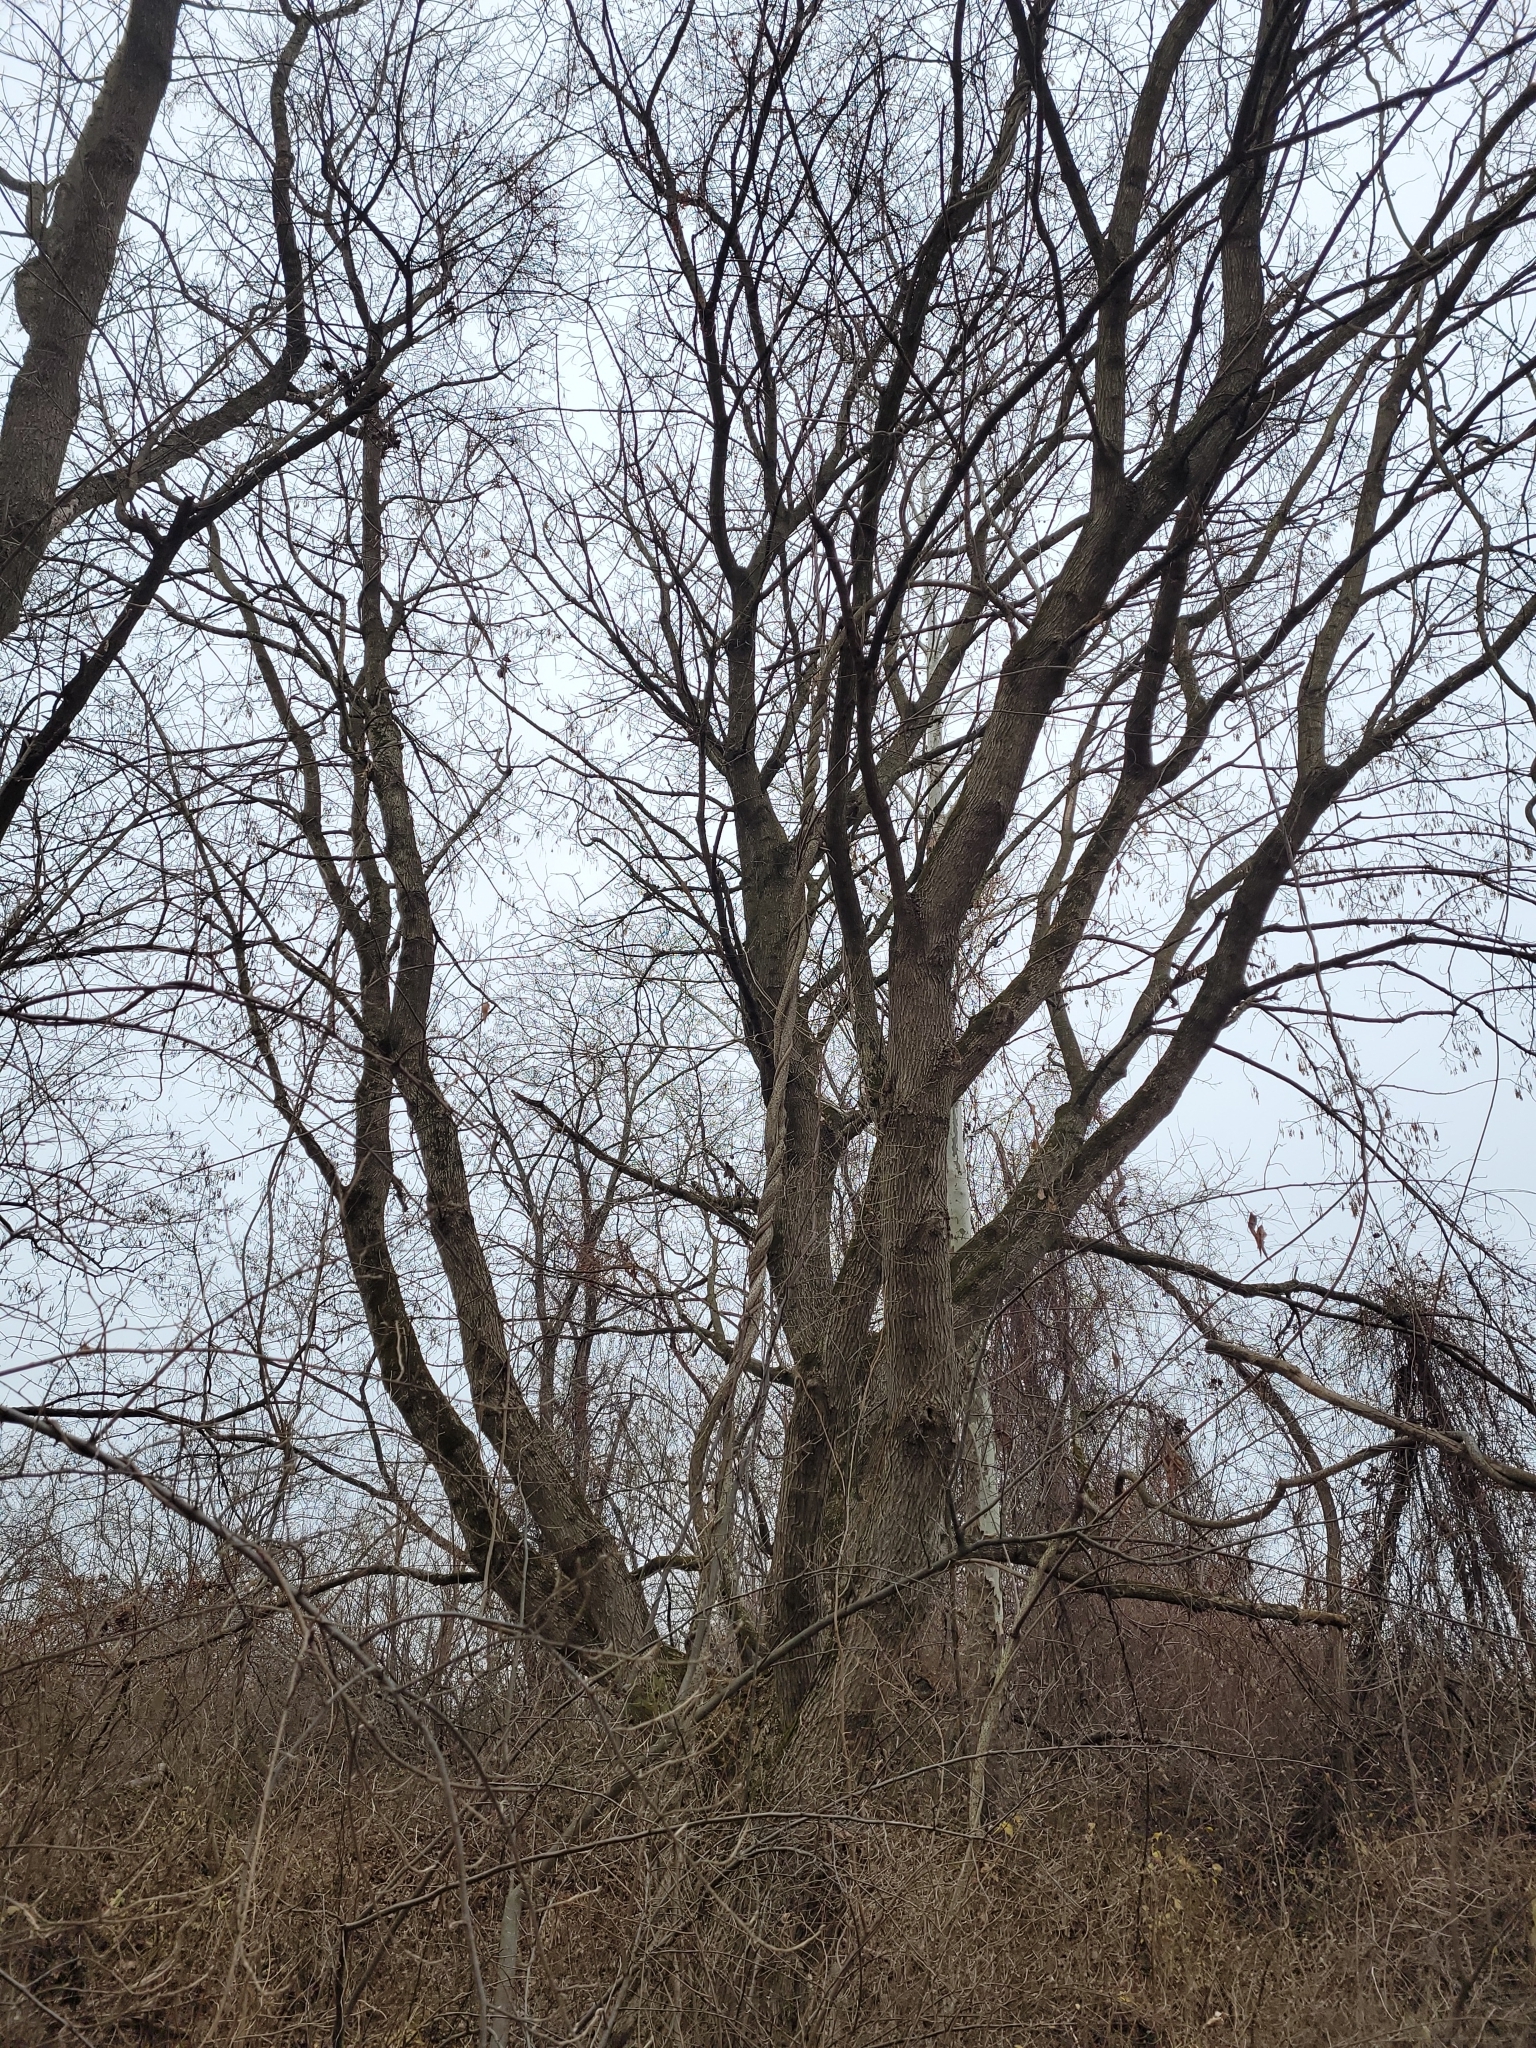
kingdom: Plantae
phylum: Tracheophyta
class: Magnoliopsida
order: Sapindales
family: Sapindaceae
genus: Acer
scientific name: Acer negundo
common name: Ashleaf maple
